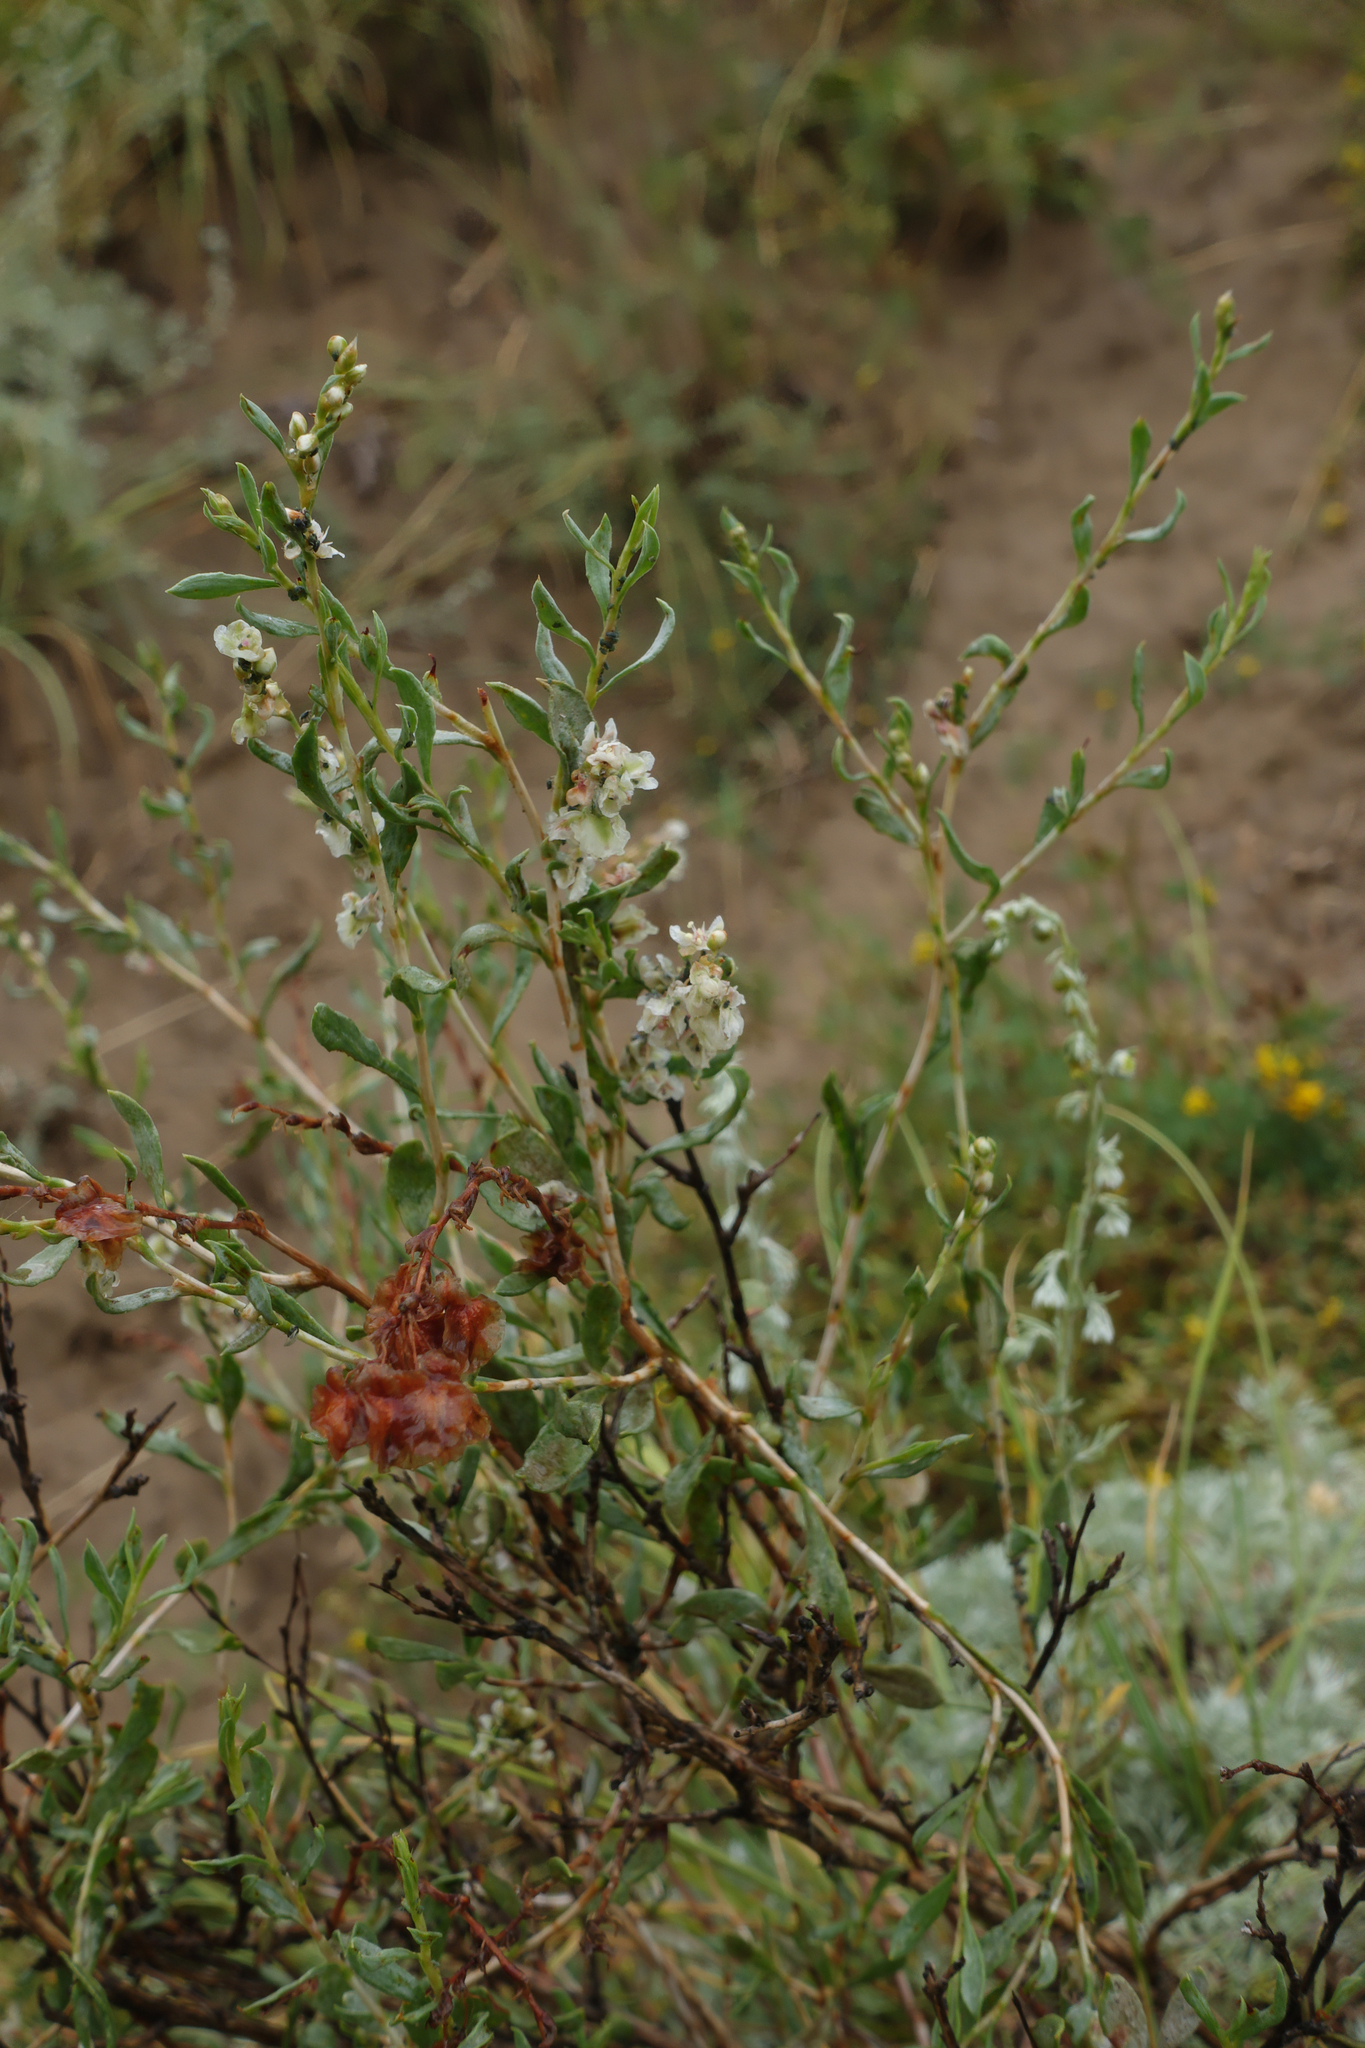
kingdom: Plantae
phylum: Tracheophyta
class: Magnoliopsida
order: Caryophyllales
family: Polygonaceae
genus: Atraphaxis
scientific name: Atraphaxis frutescens
